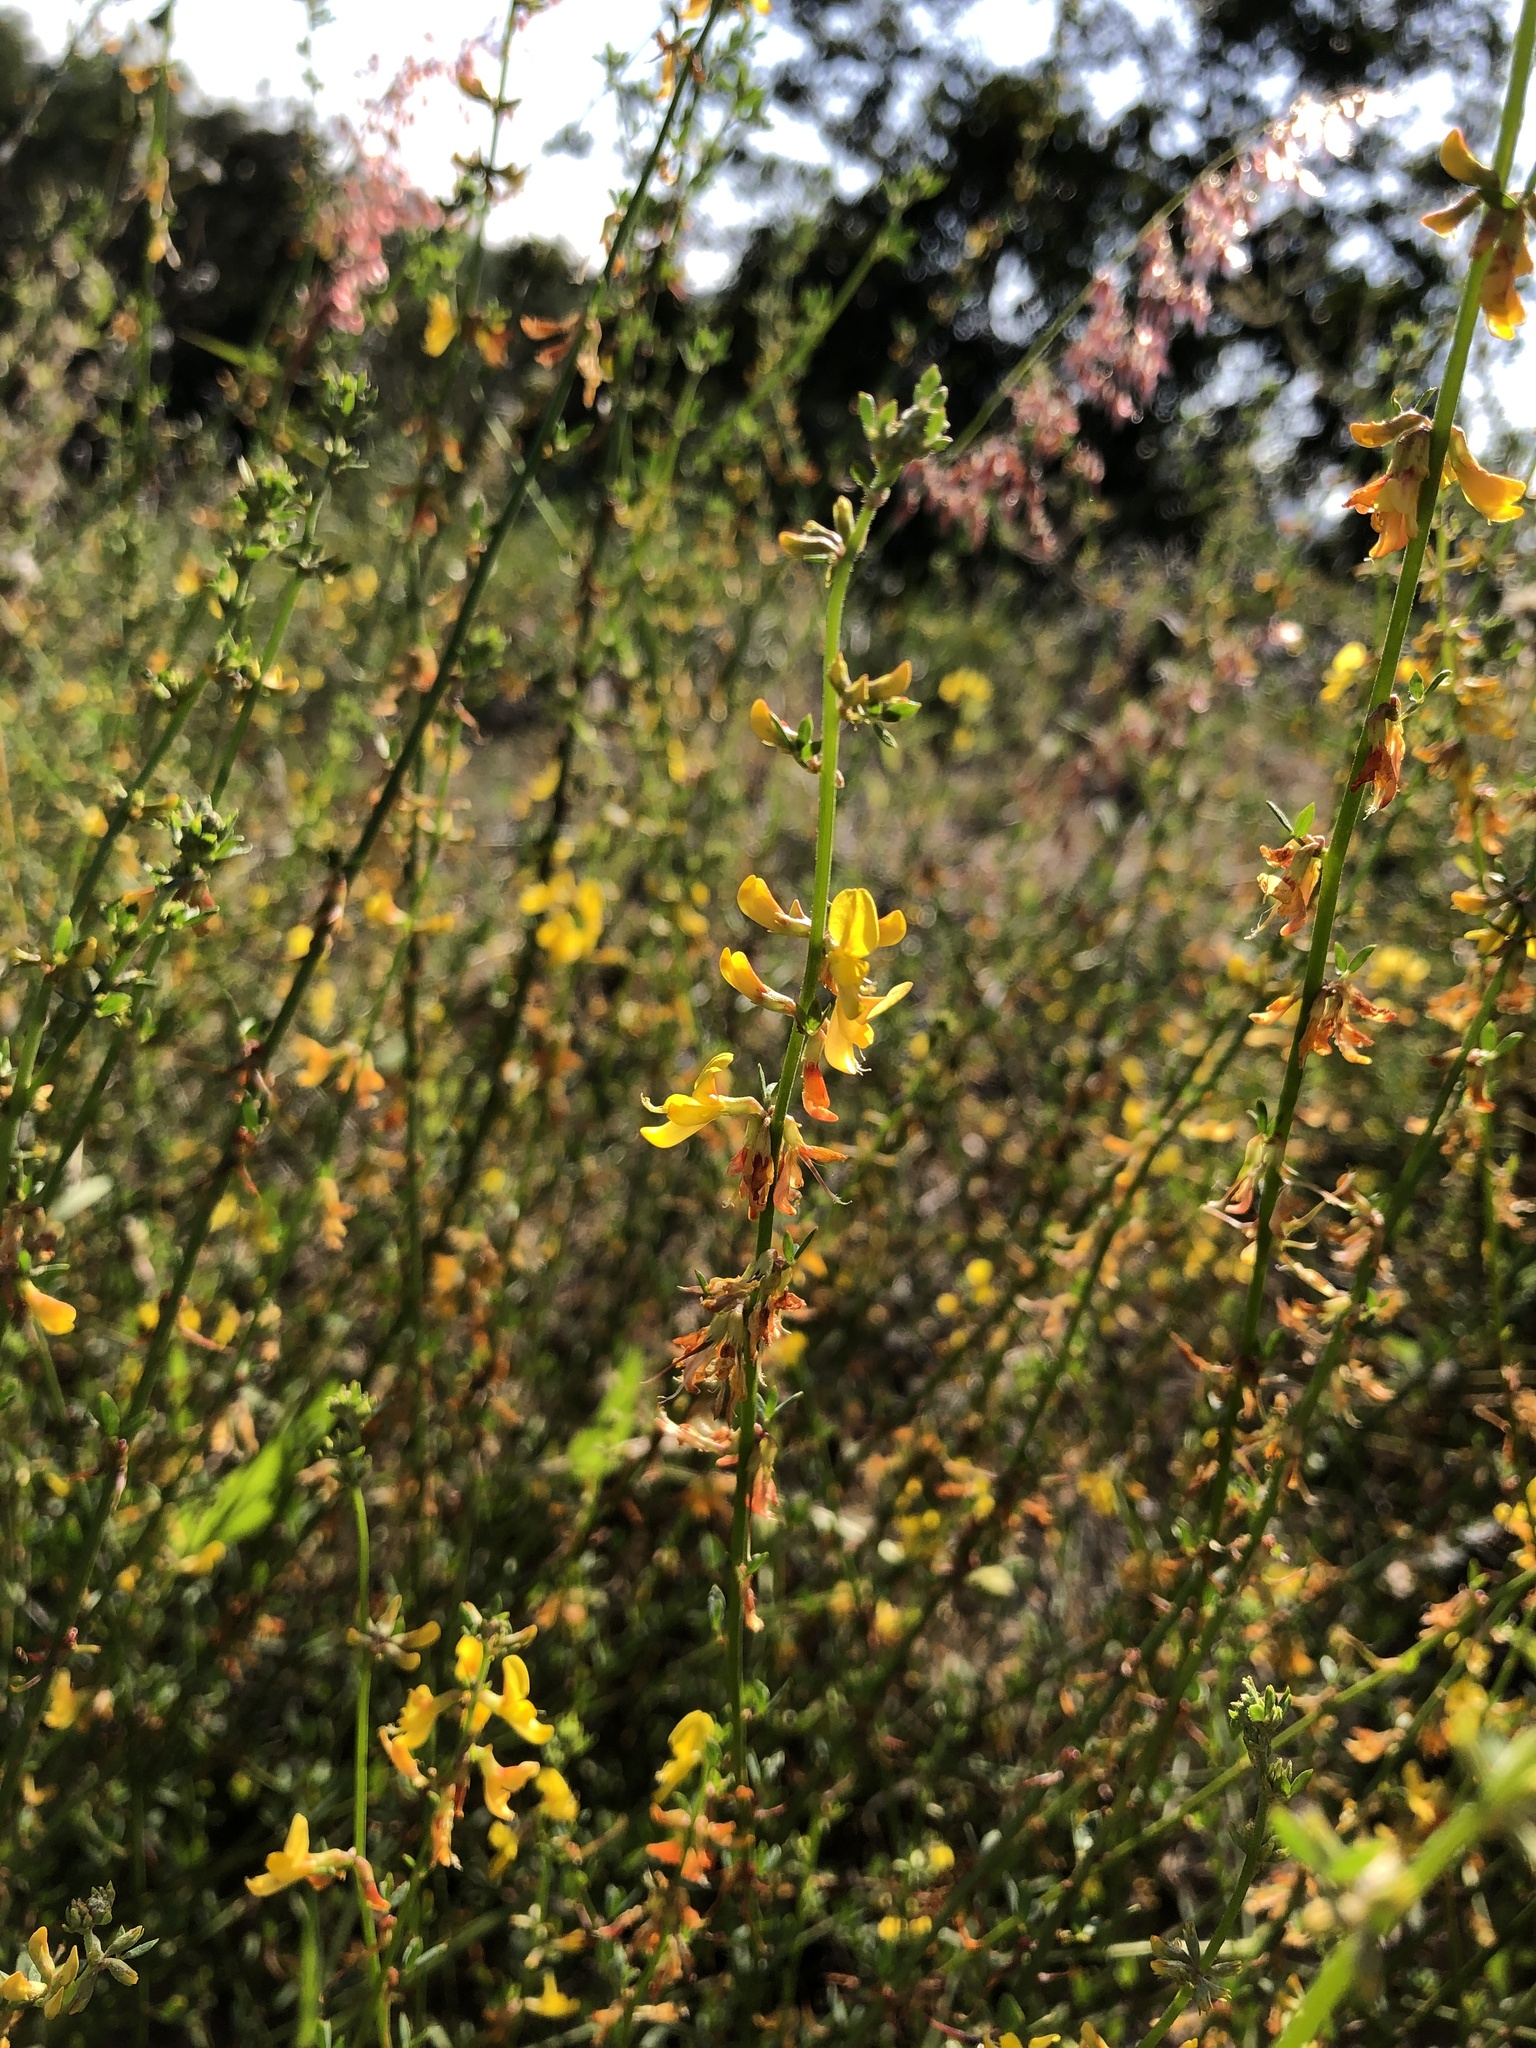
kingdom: Plantae
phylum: Tracheophyta
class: Magnoliopsida
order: Fabales
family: Fabaceae
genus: Acmispon
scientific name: Acmispon glaber
